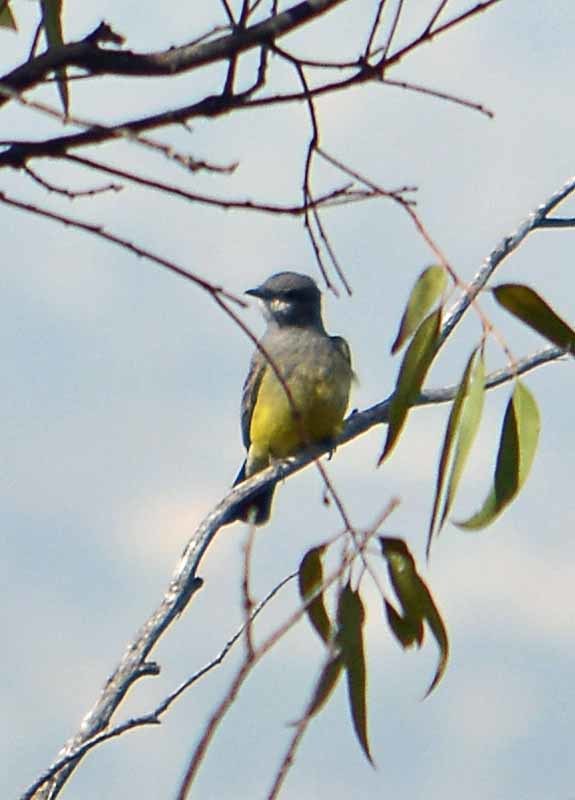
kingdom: Animalia
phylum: Chordata
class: Aves
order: Passeriformes
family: Tyrannidae
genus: Tyrannus
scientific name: Tyrannus vociferans
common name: Cassin's kingbird
